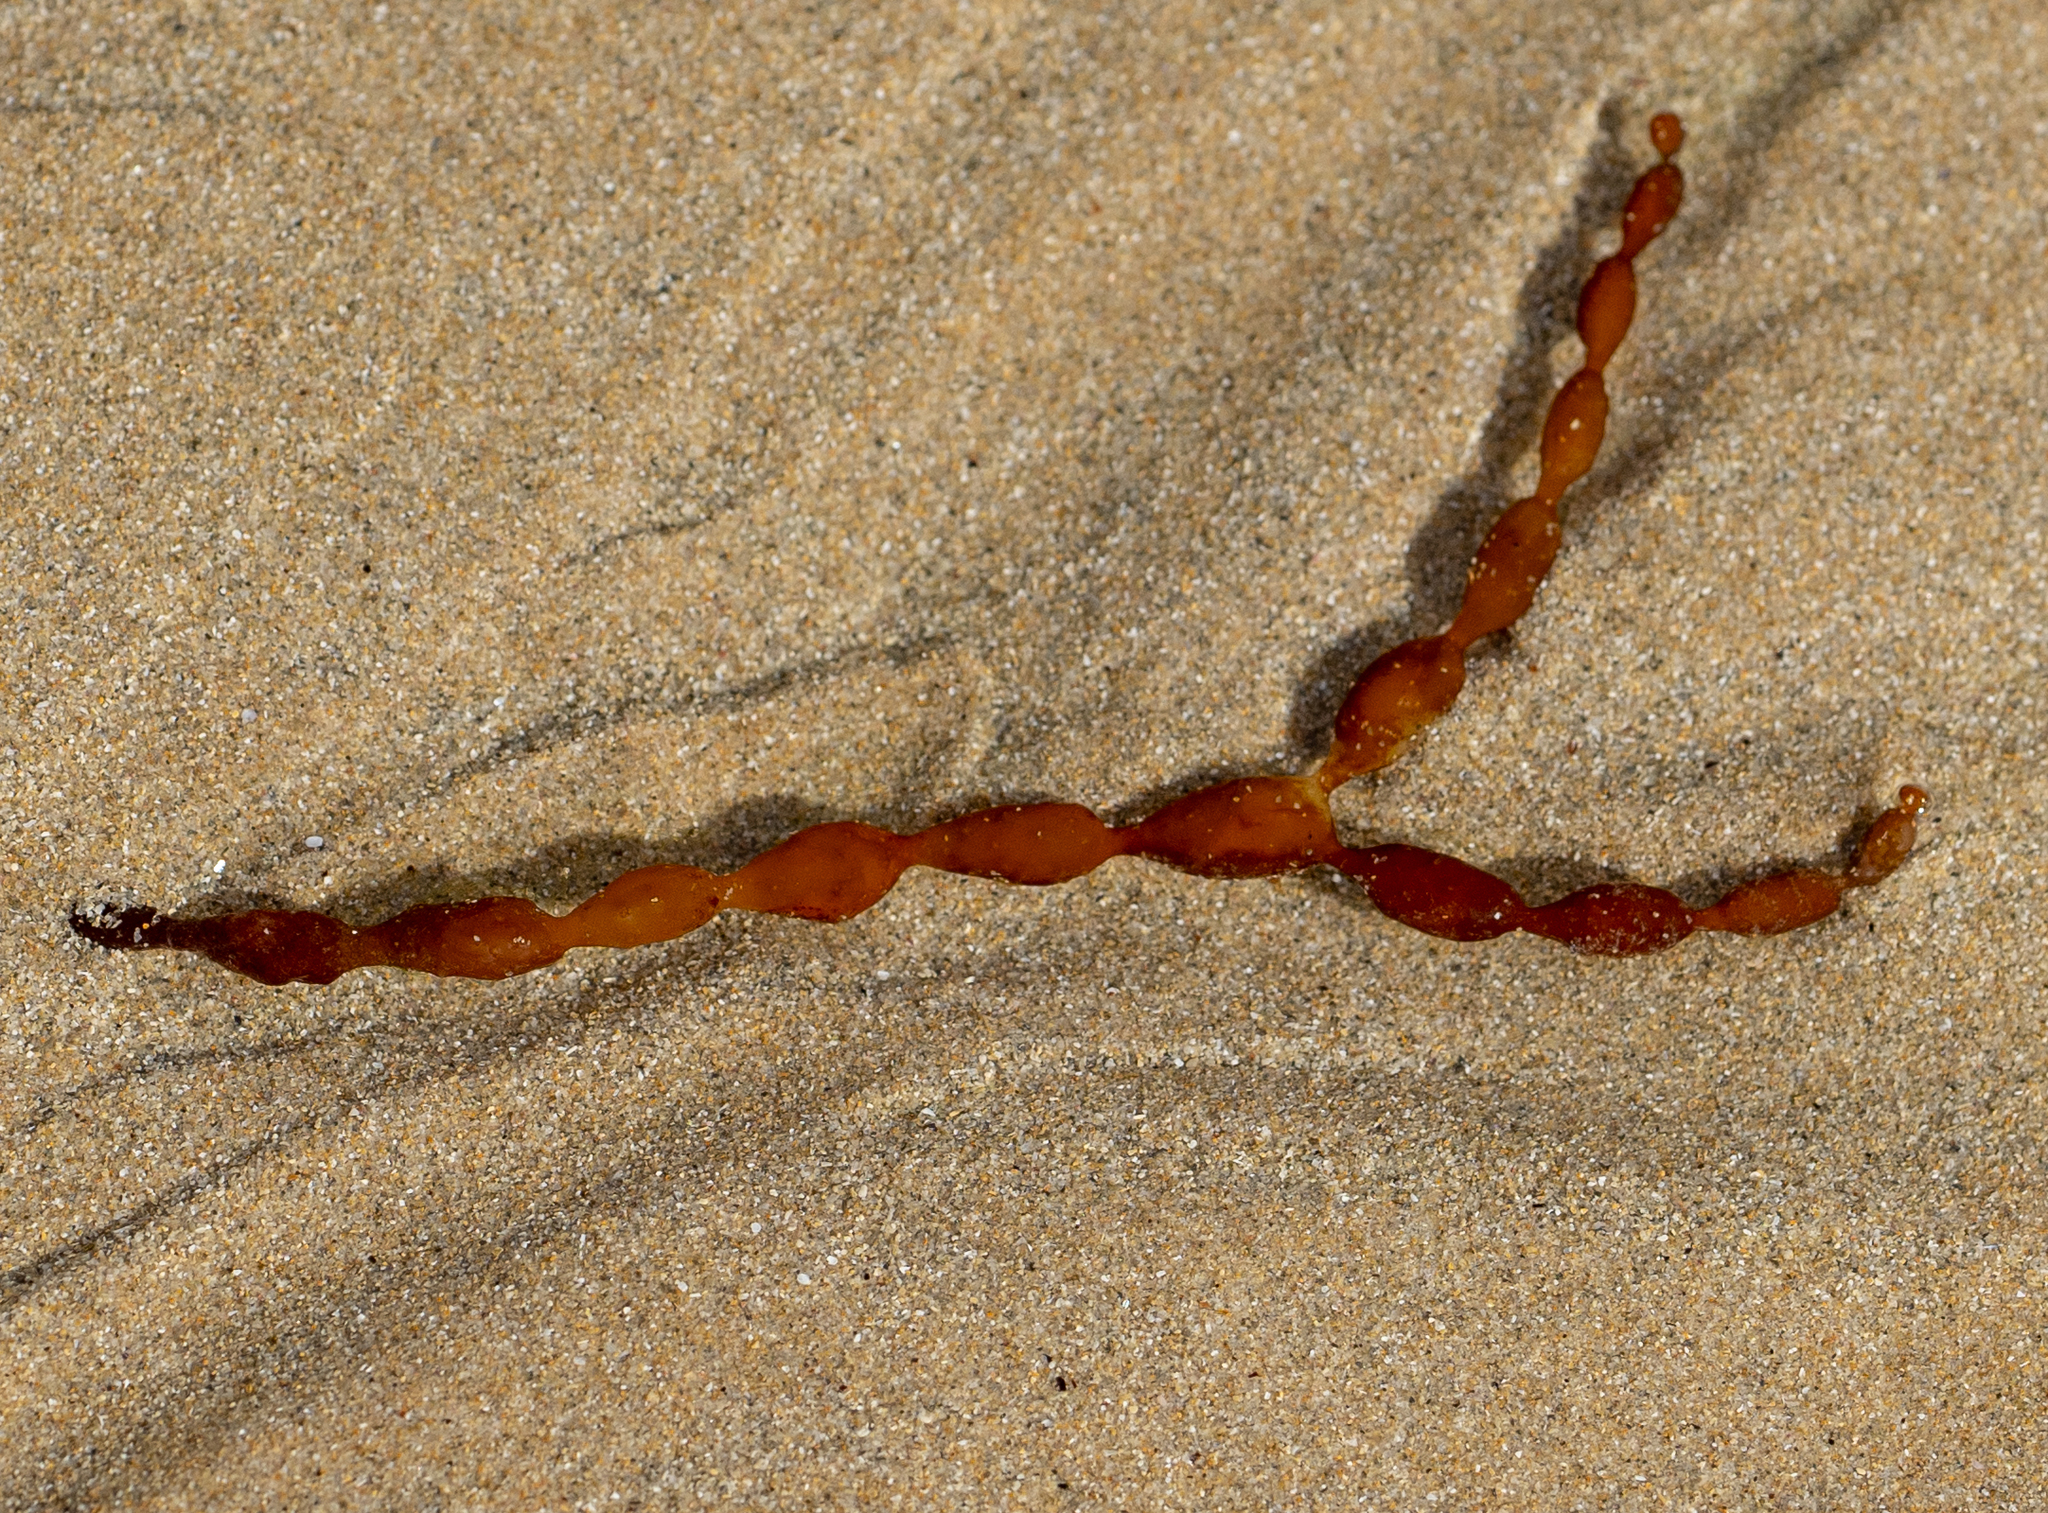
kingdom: Chromista
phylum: Ochrophyta
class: Phaeophyceae
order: Fucales
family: Hormosiraceae
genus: Hormosira
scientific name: Hormosira banksii
